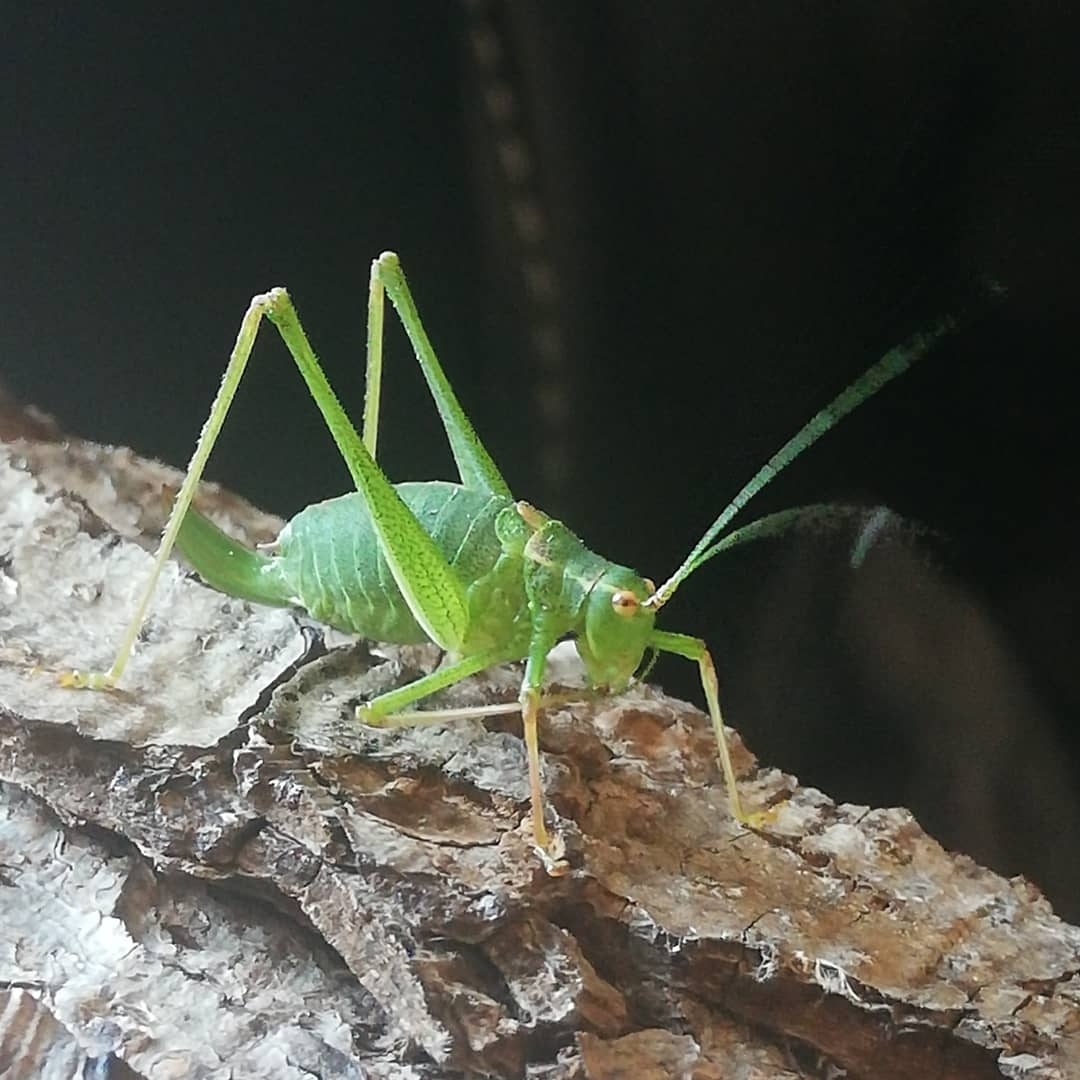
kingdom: Animalia
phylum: Arthropoda
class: Insecta
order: Orthoptera
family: Tettigoniidae
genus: Leptophyes
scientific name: Leptophyes punctatissima
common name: Speckled bush-cricket
